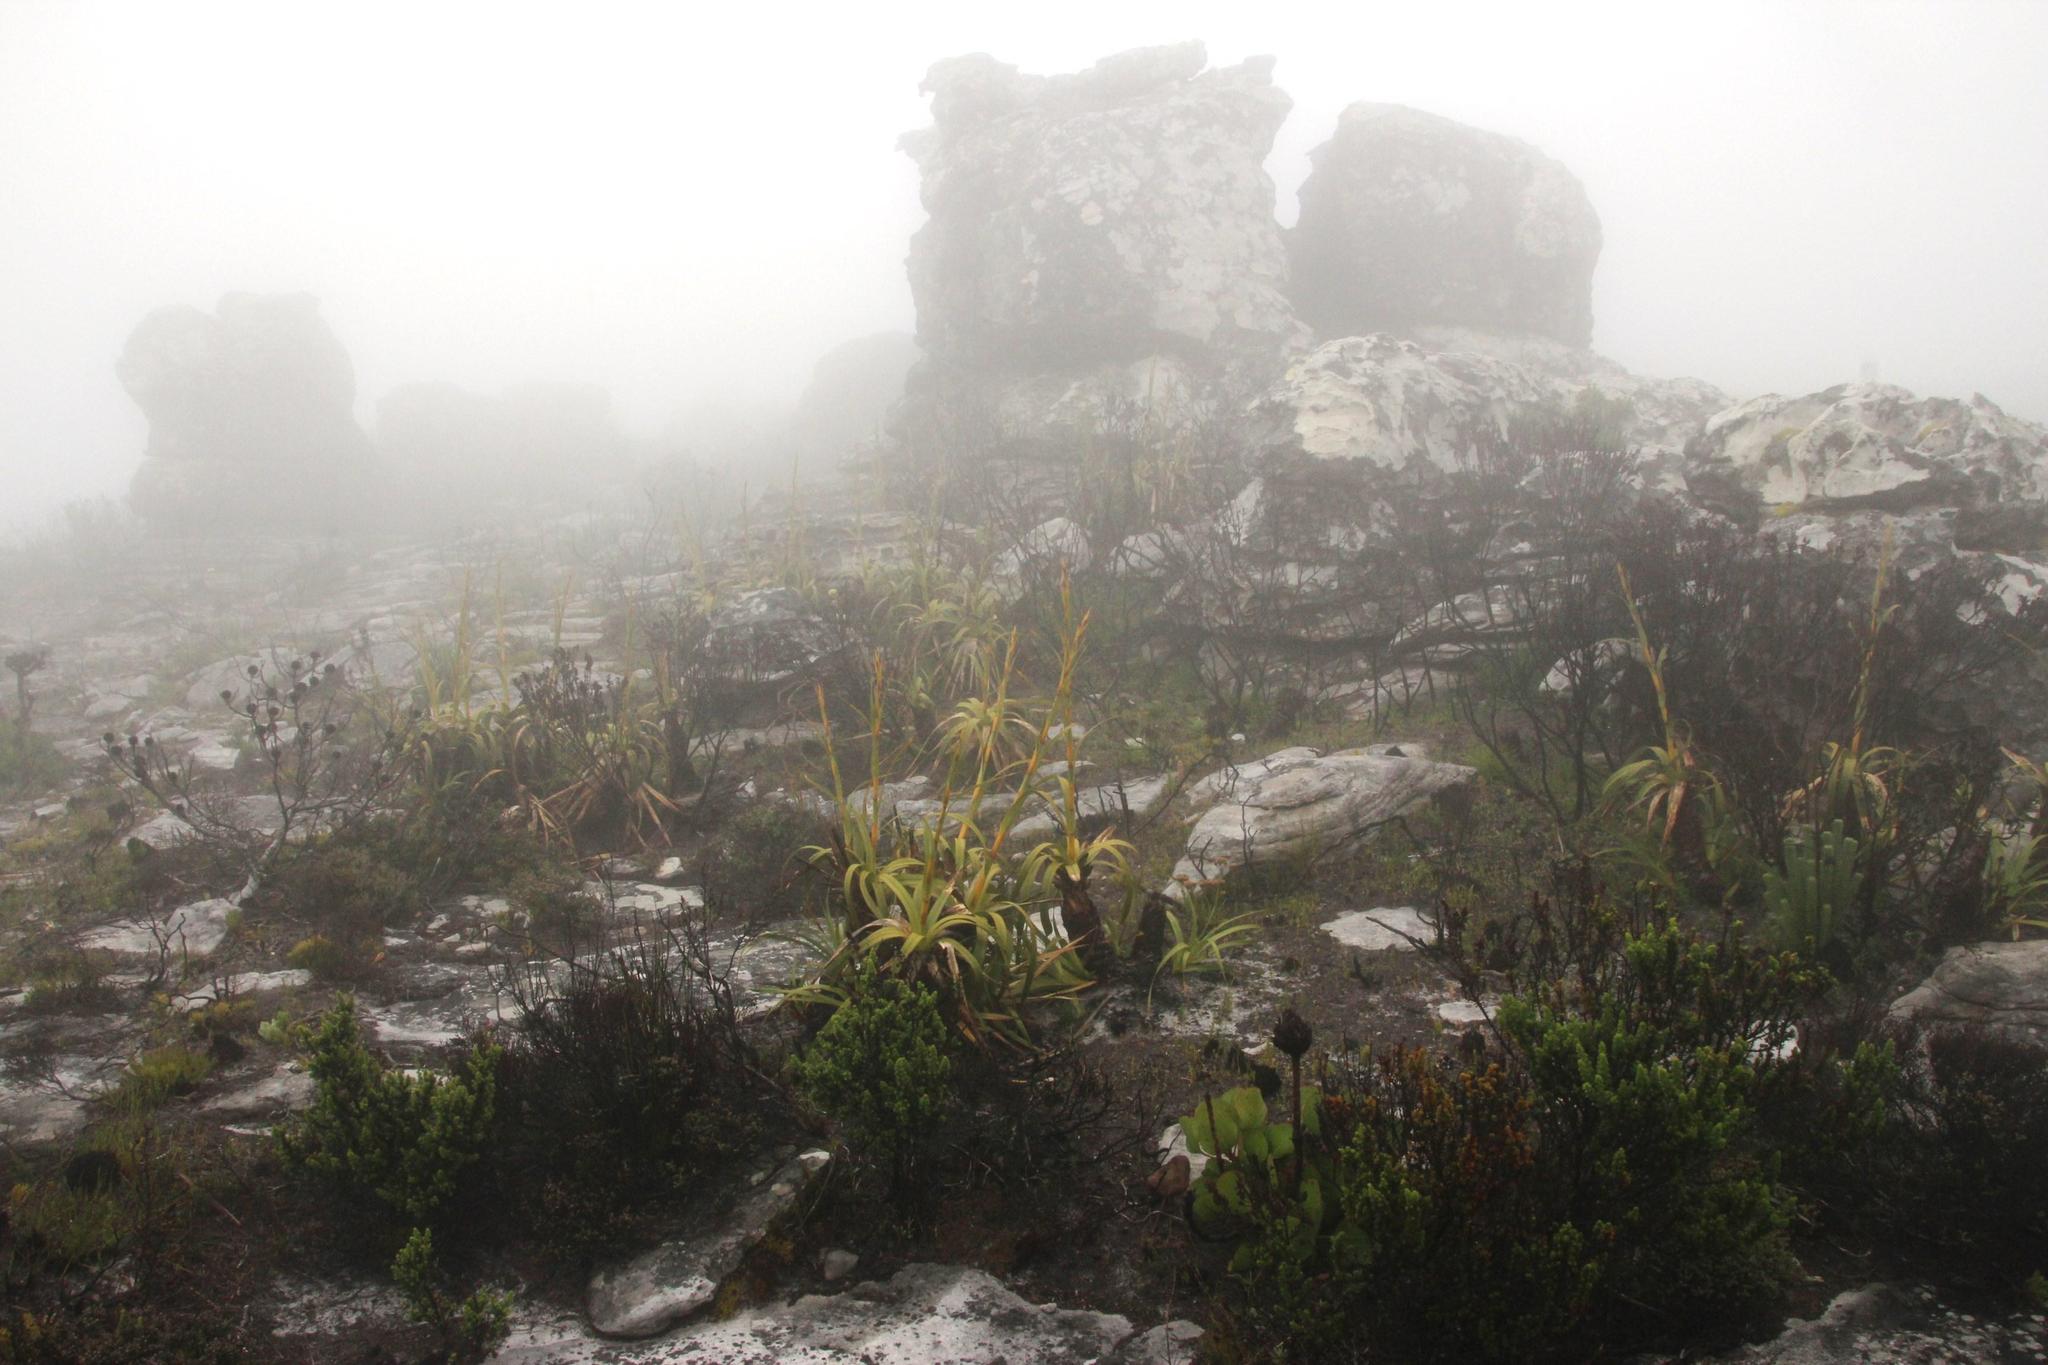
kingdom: Plantae
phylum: Tracheophyta
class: Liliopsida
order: Poales
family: Cyperaceae
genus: Tetraria
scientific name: Tetraria thermalis
